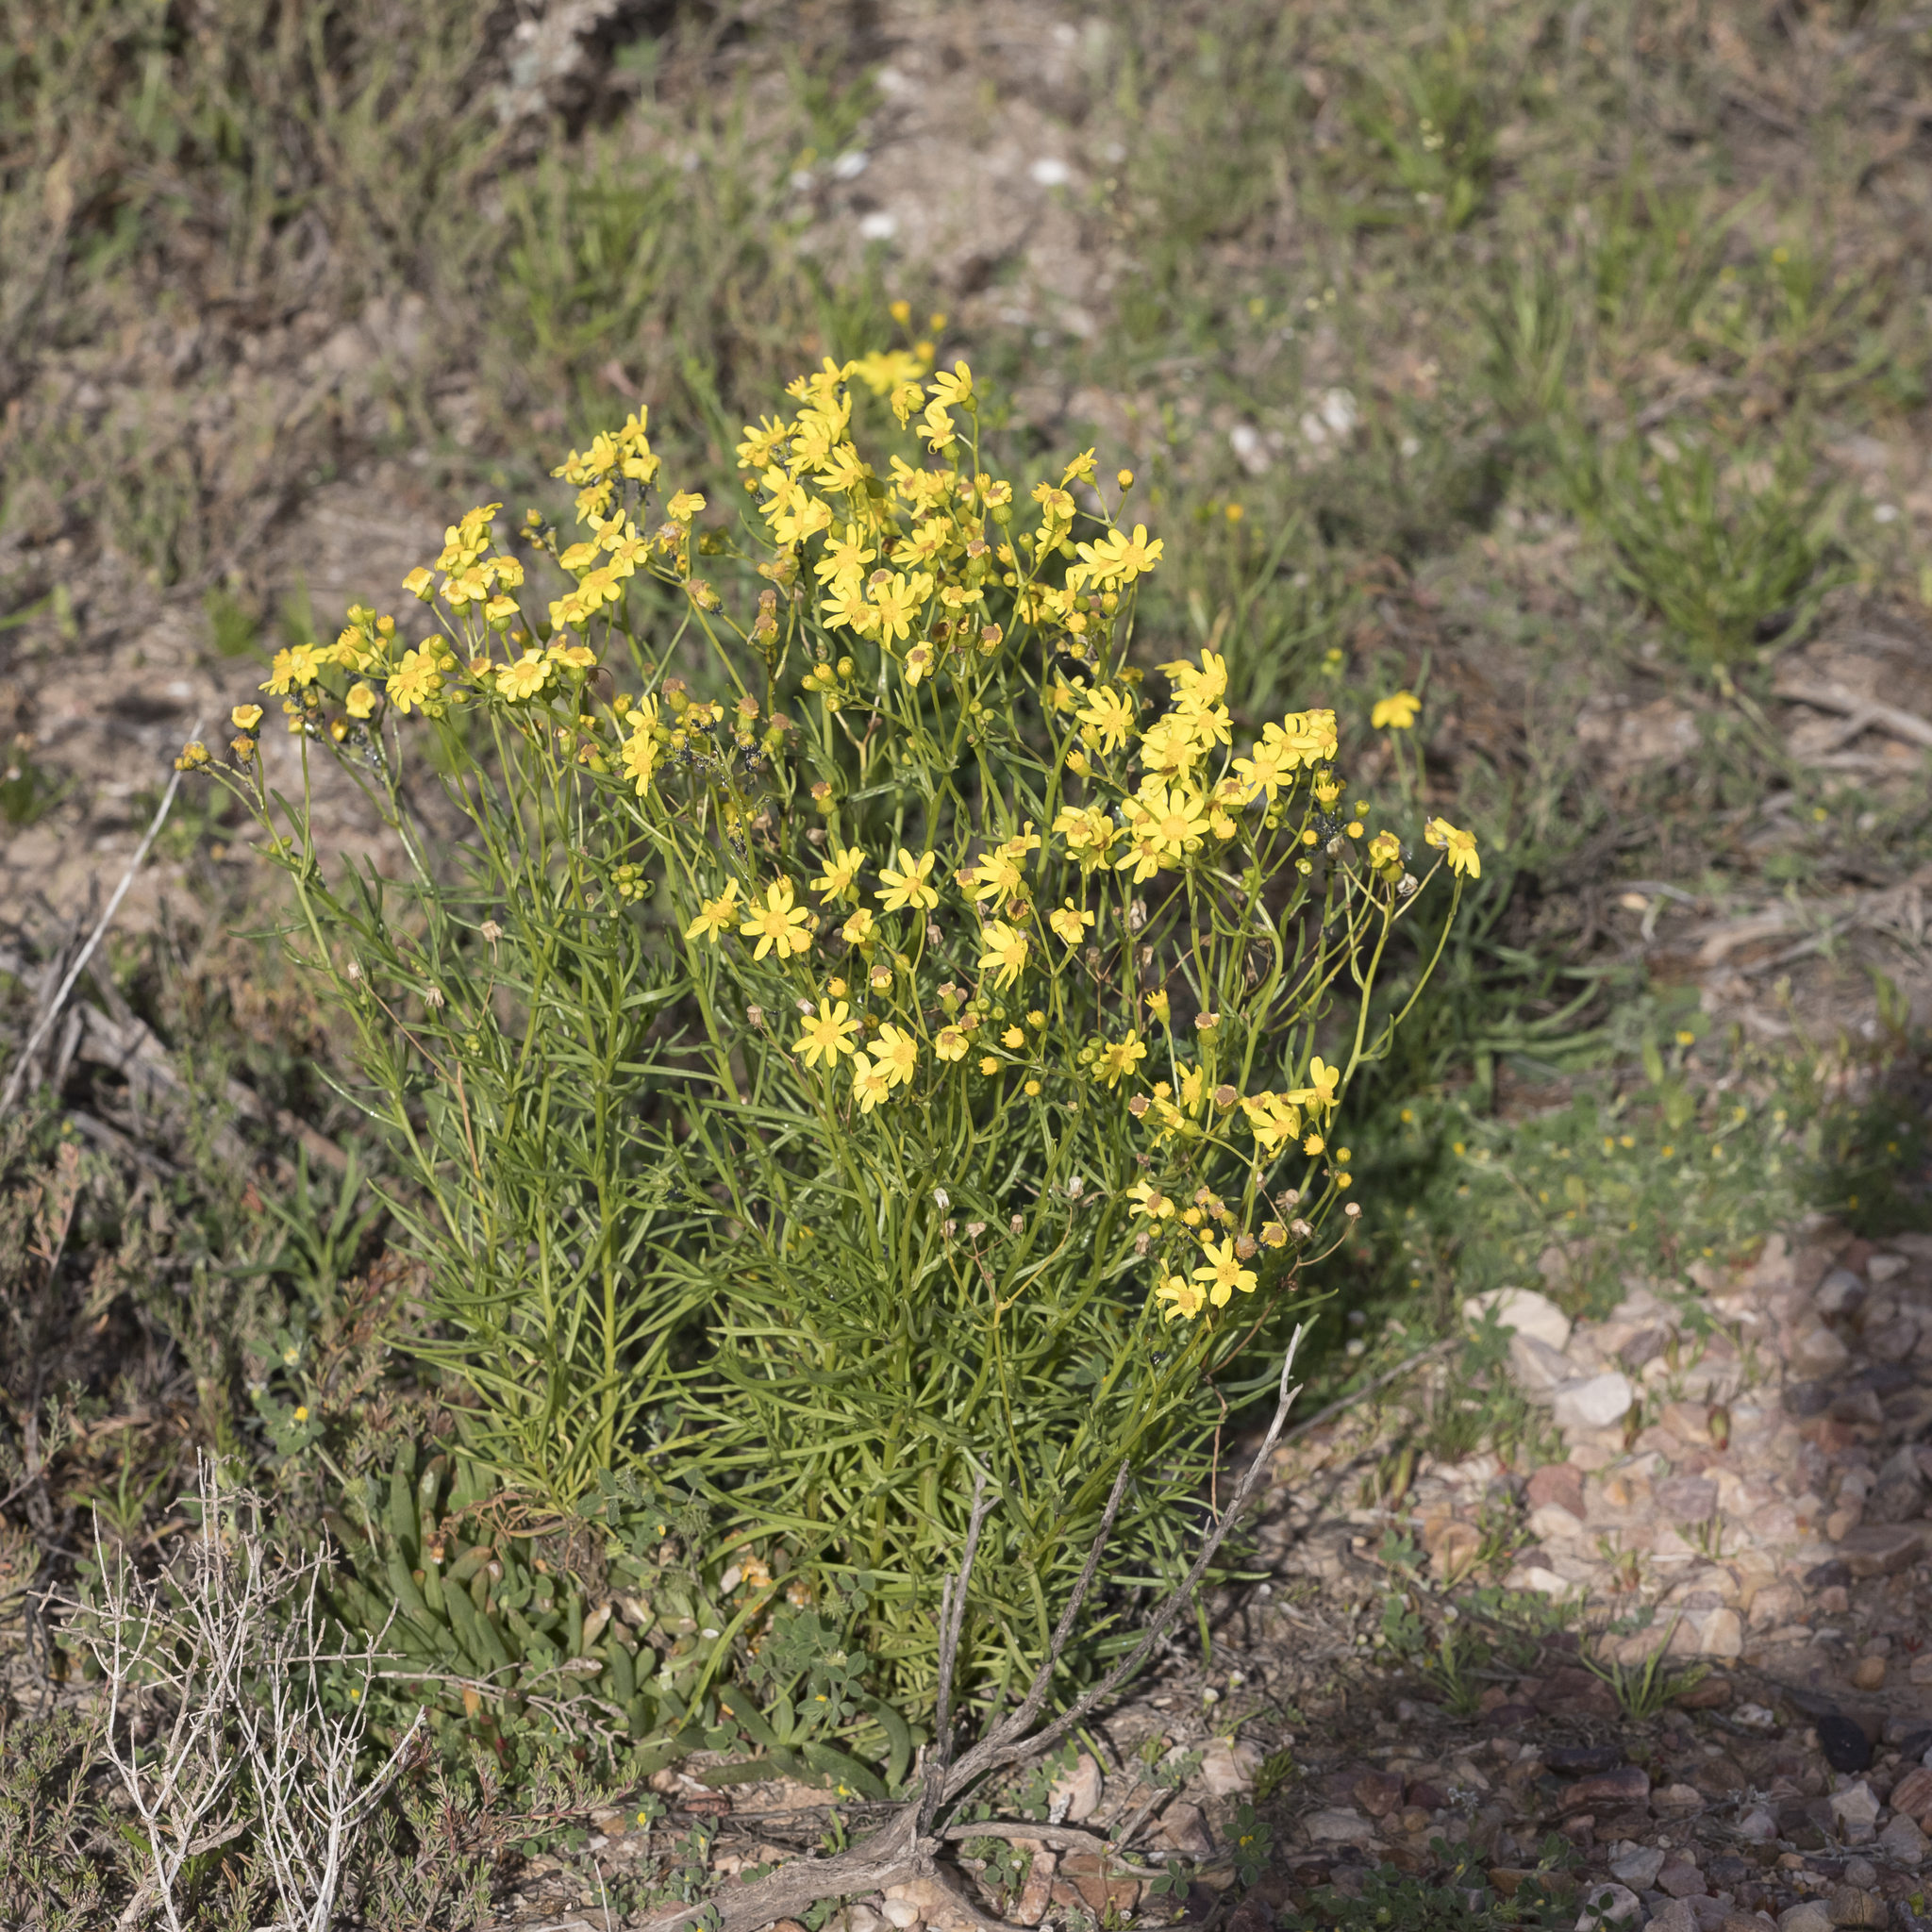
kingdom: Plantae
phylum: Tracheophyta
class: Magnoliopsida
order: Asterales
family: Asteraceae
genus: Senecio
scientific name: Senecio spanomerus
